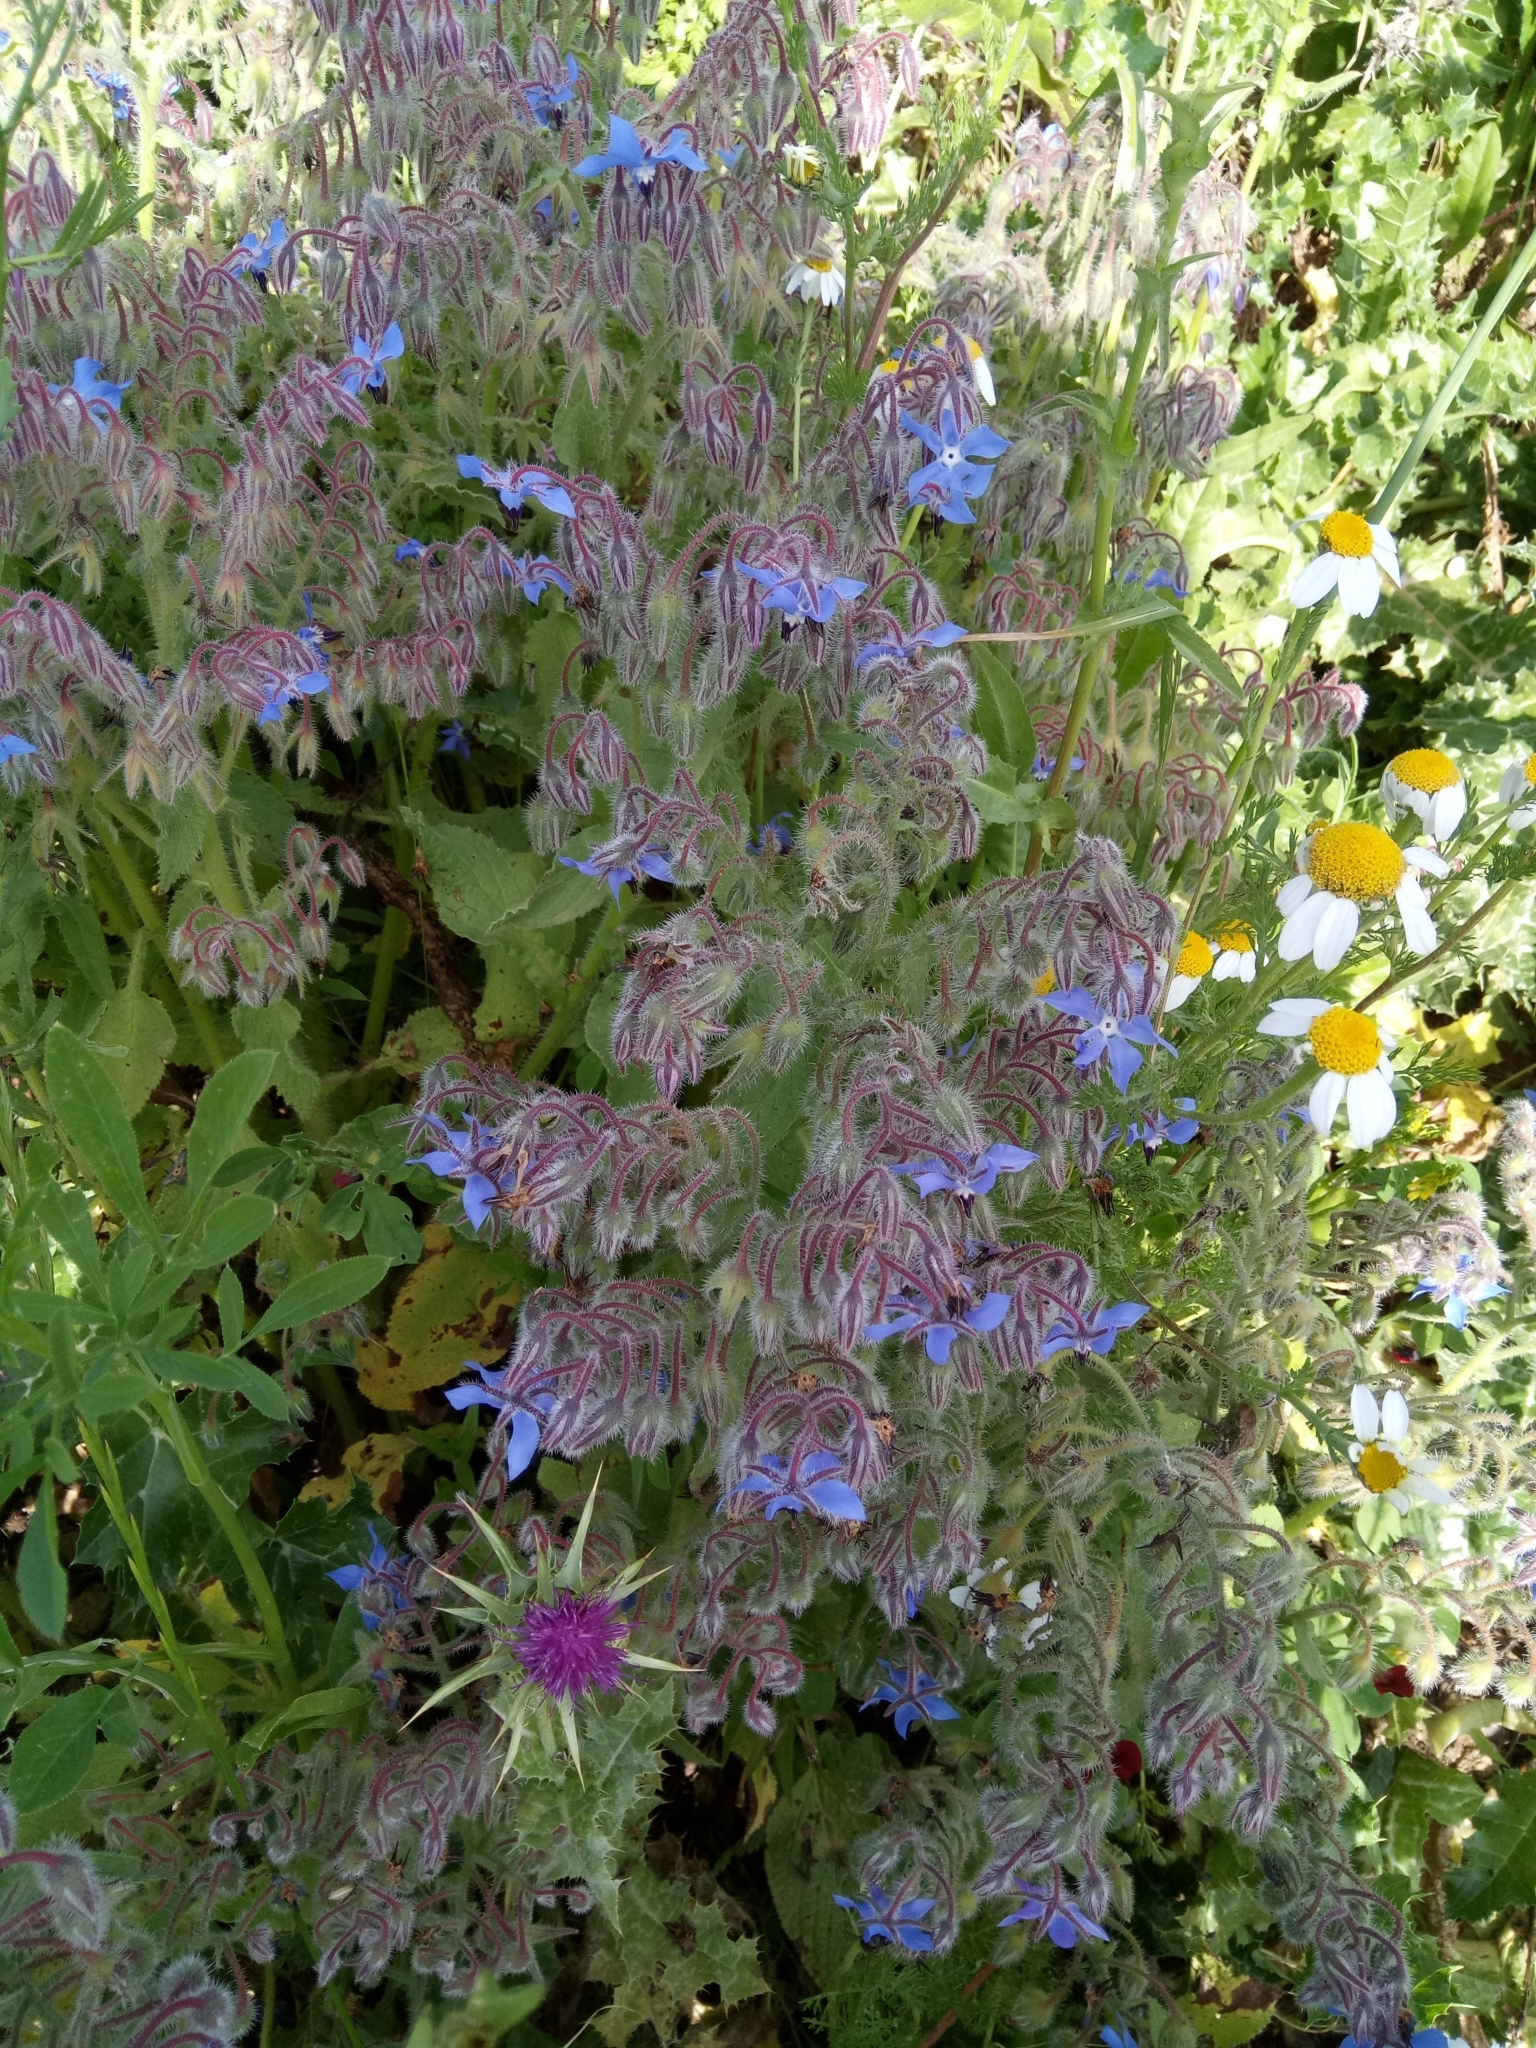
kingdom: Plantae
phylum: Tracheophyta
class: Magnoliopsida
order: Boraginales
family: Boraginaceae
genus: Borago
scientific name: Borago officinalis
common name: Borage
